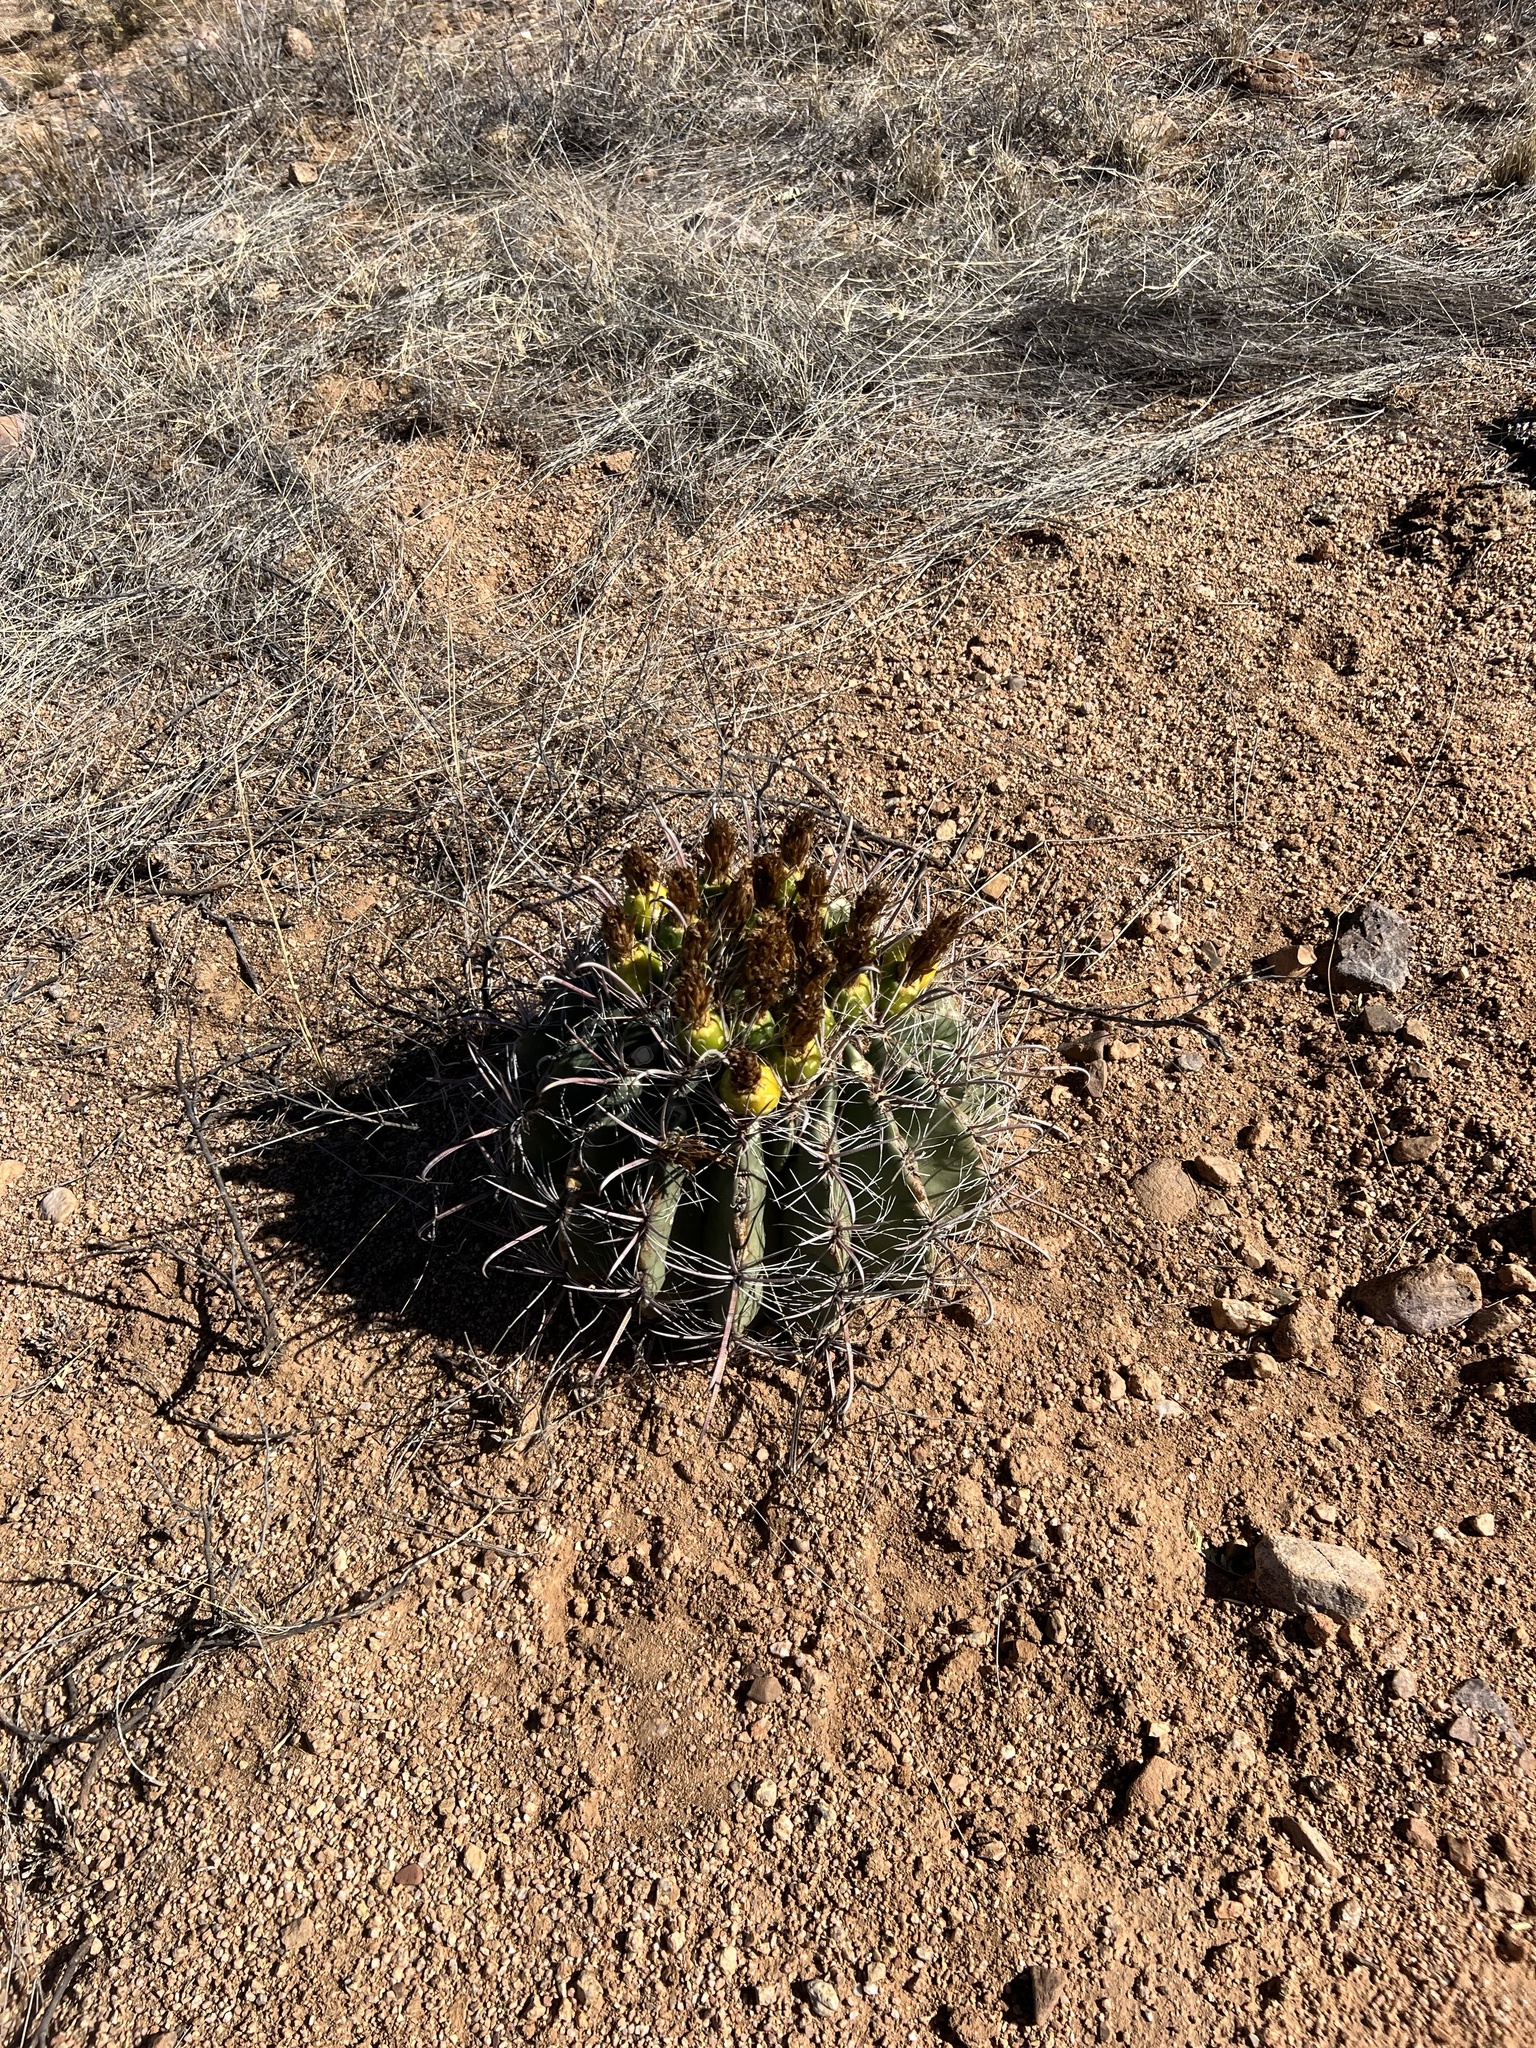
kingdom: Plantae
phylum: Tracheophyta
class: Magnoliopsida
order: Caryophyllales
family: Cactaceae
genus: Ferocactus
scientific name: Ferocactus wislizeni
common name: Candy barrel cactus
